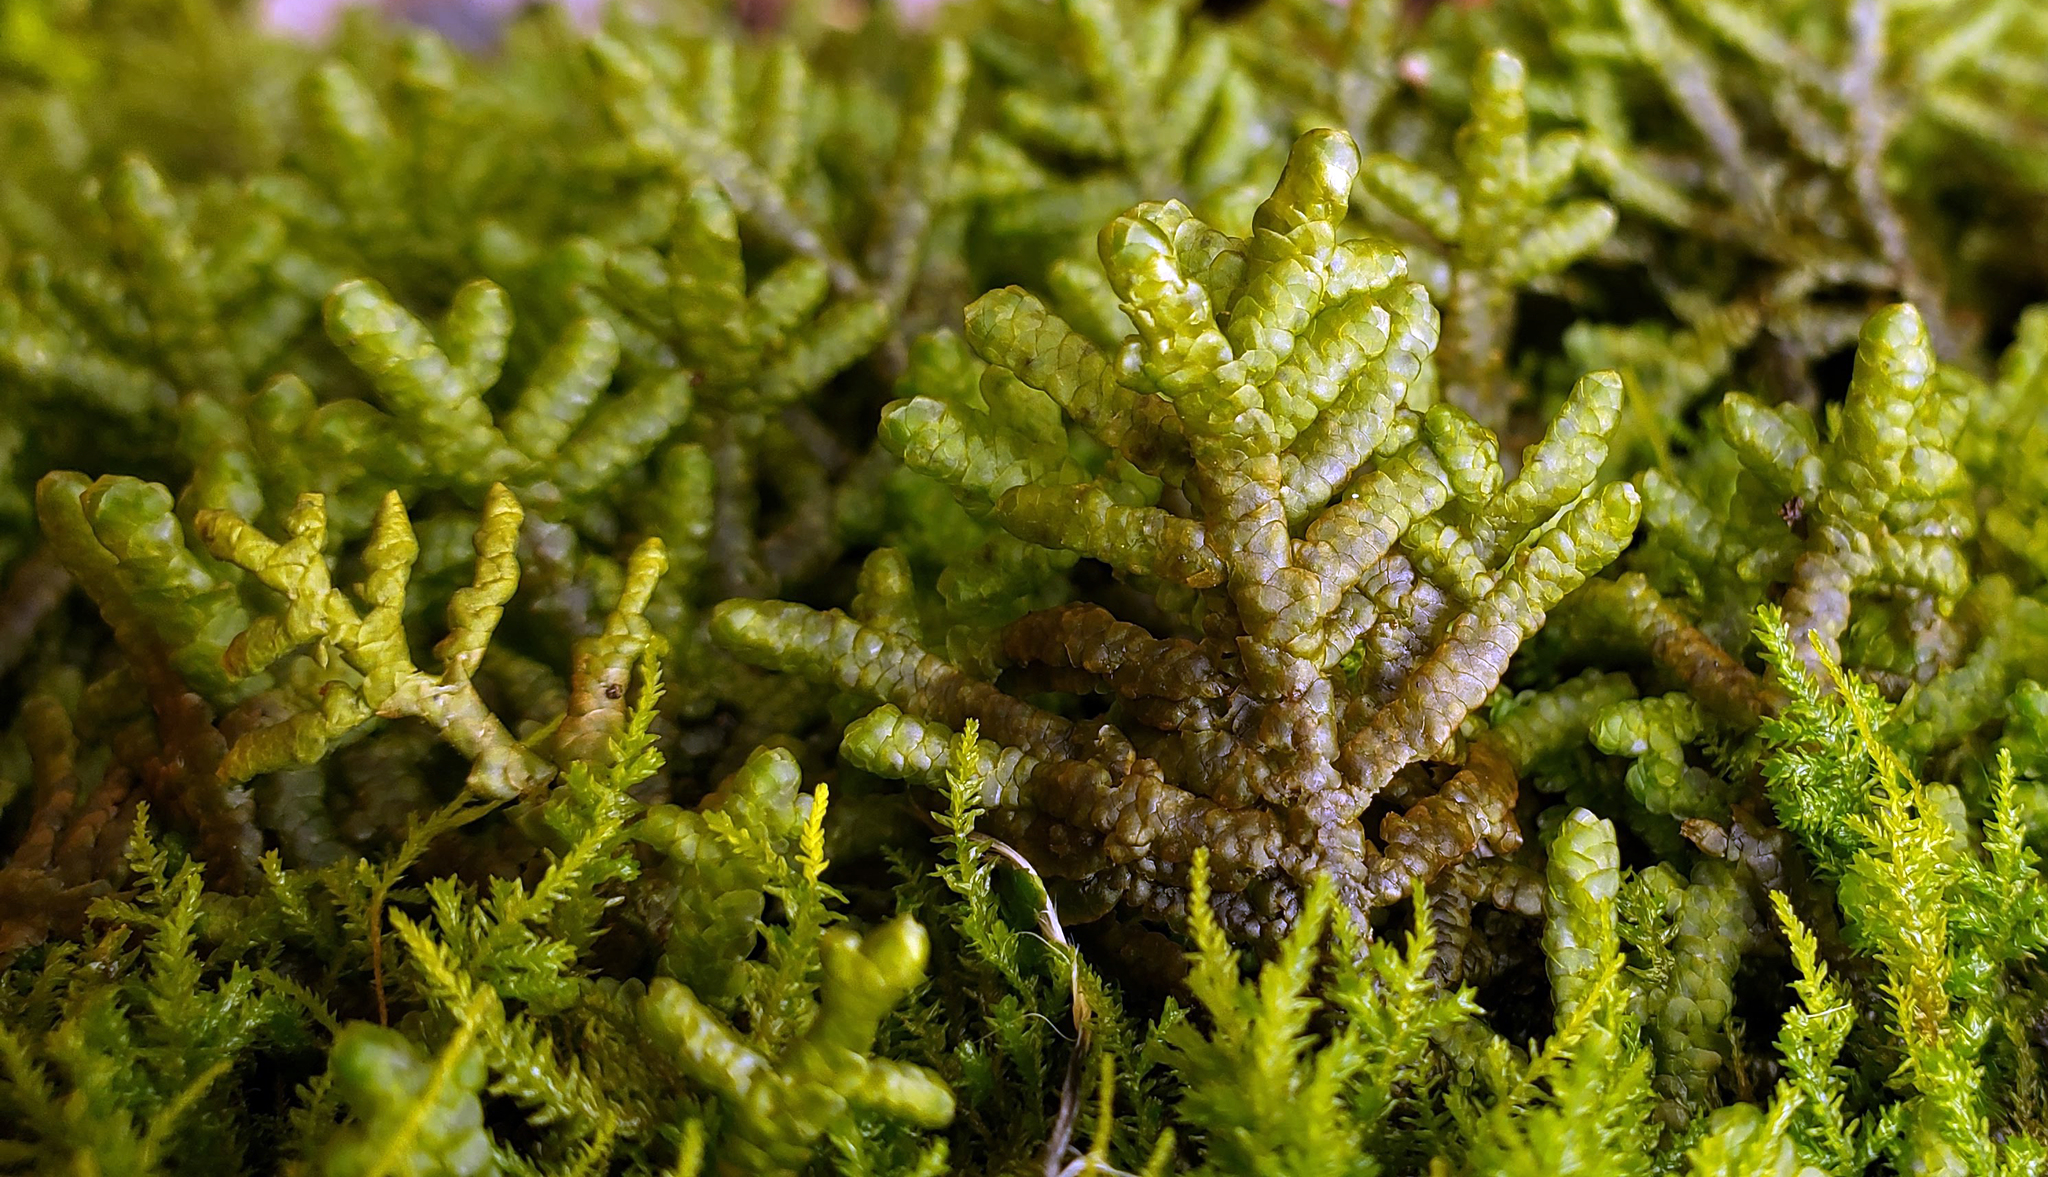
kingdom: Plantae
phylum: Marchantiophyta
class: Jungermanniopsida
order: Porellales
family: Porellaceae
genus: Porella
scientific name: Porella platyphylla
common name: Wall scalewort
